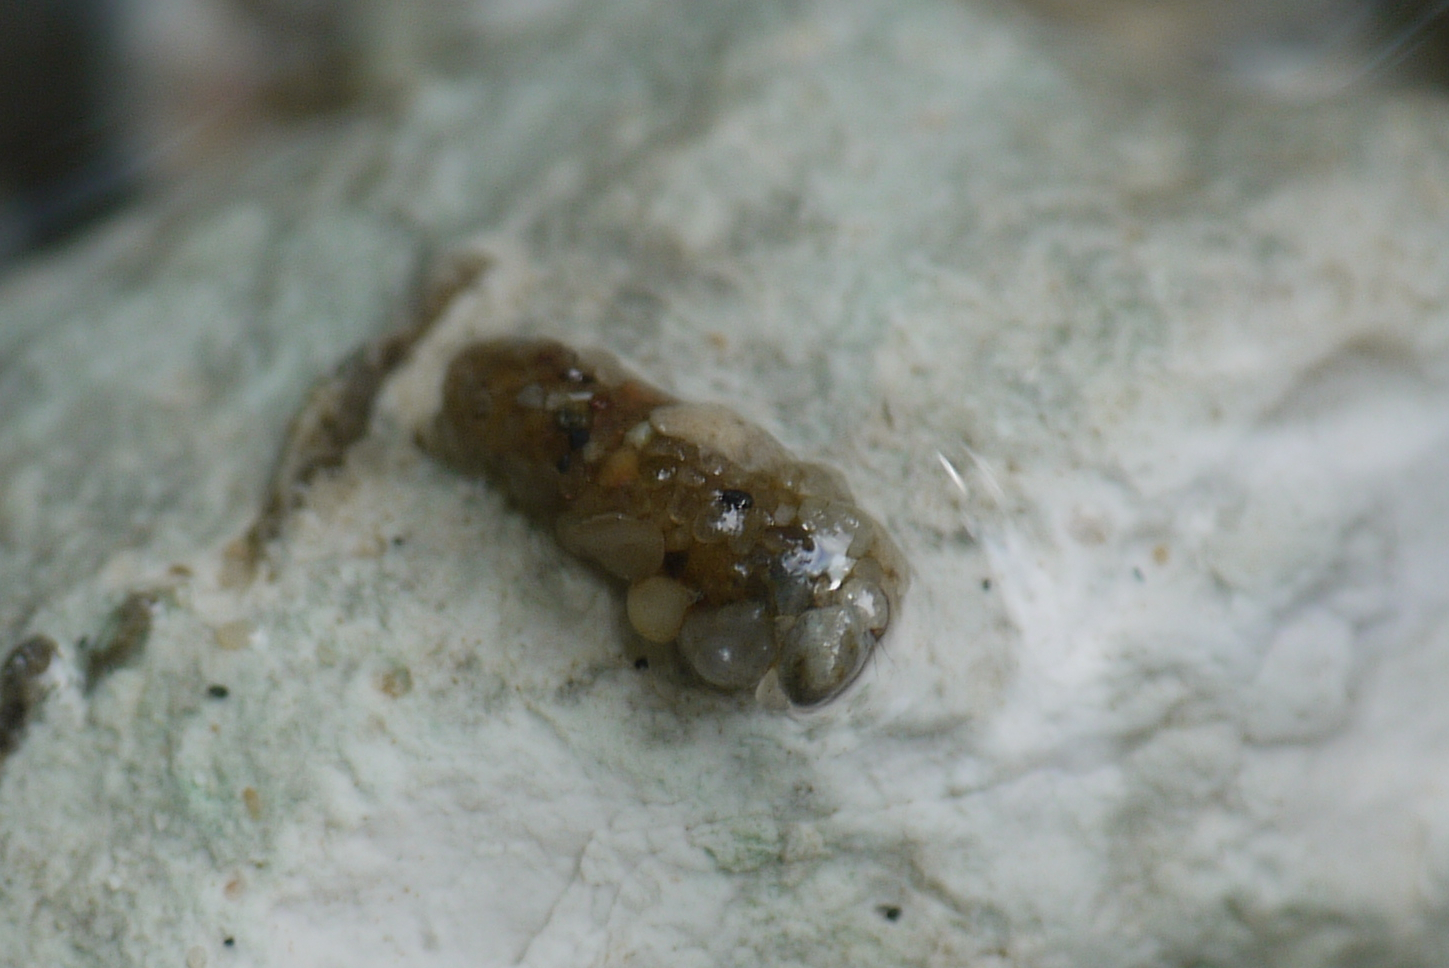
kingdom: Animalia
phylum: Arthropoda
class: Insecta
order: Trichoptera
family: Apataniidae
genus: Apatania
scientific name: Apatania muliebris
